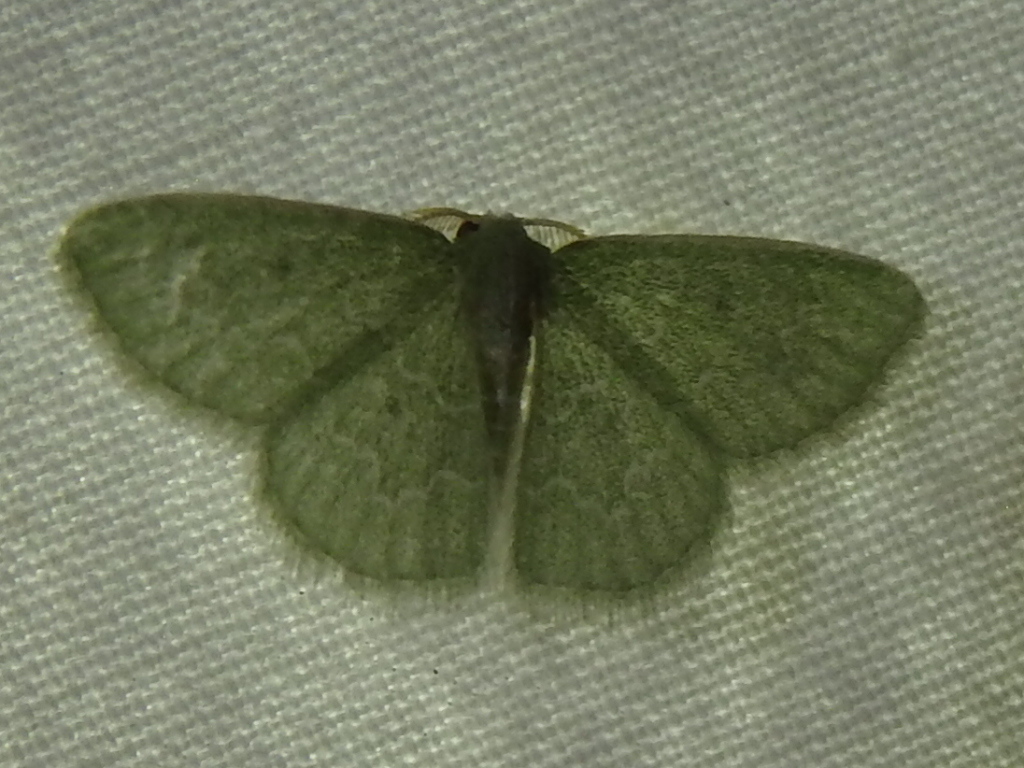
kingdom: Animalia
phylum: Arthropoda
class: Insecta
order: Lepidoptera
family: Geometridae
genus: Synchlora
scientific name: Synchlora frondaria
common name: Southern emerald
